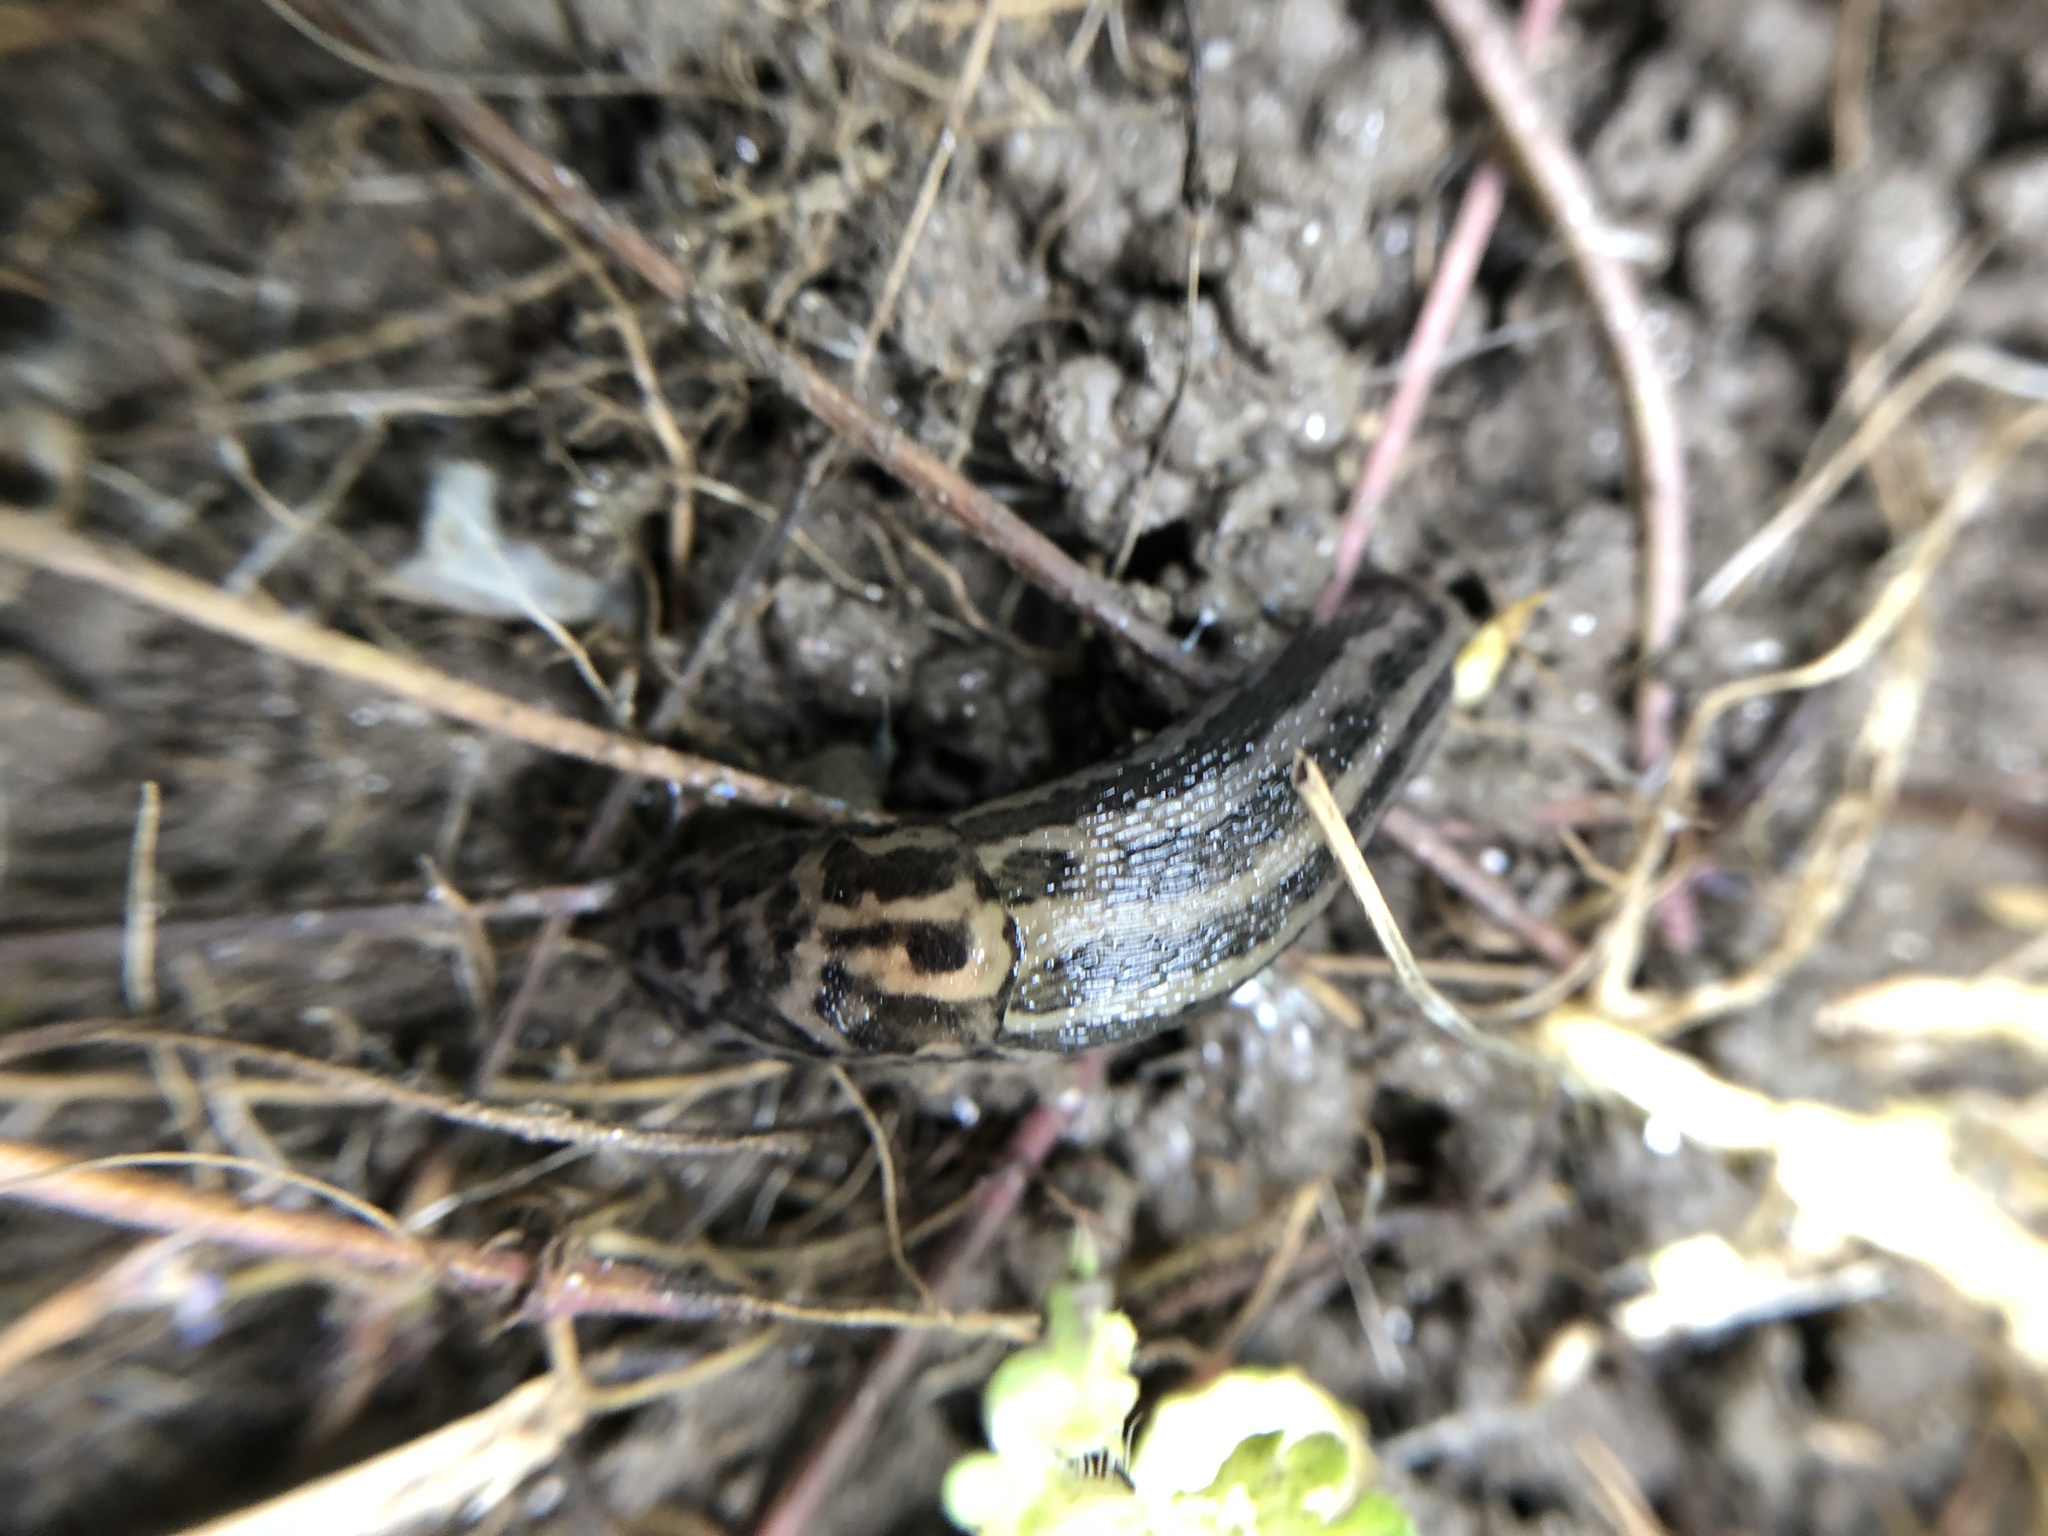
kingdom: Animalia
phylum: Mollusca
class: Gastropoda
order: Stylommatophora
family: Limacidae
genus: Limax
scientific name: Limax maximus
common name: Great grey slug
